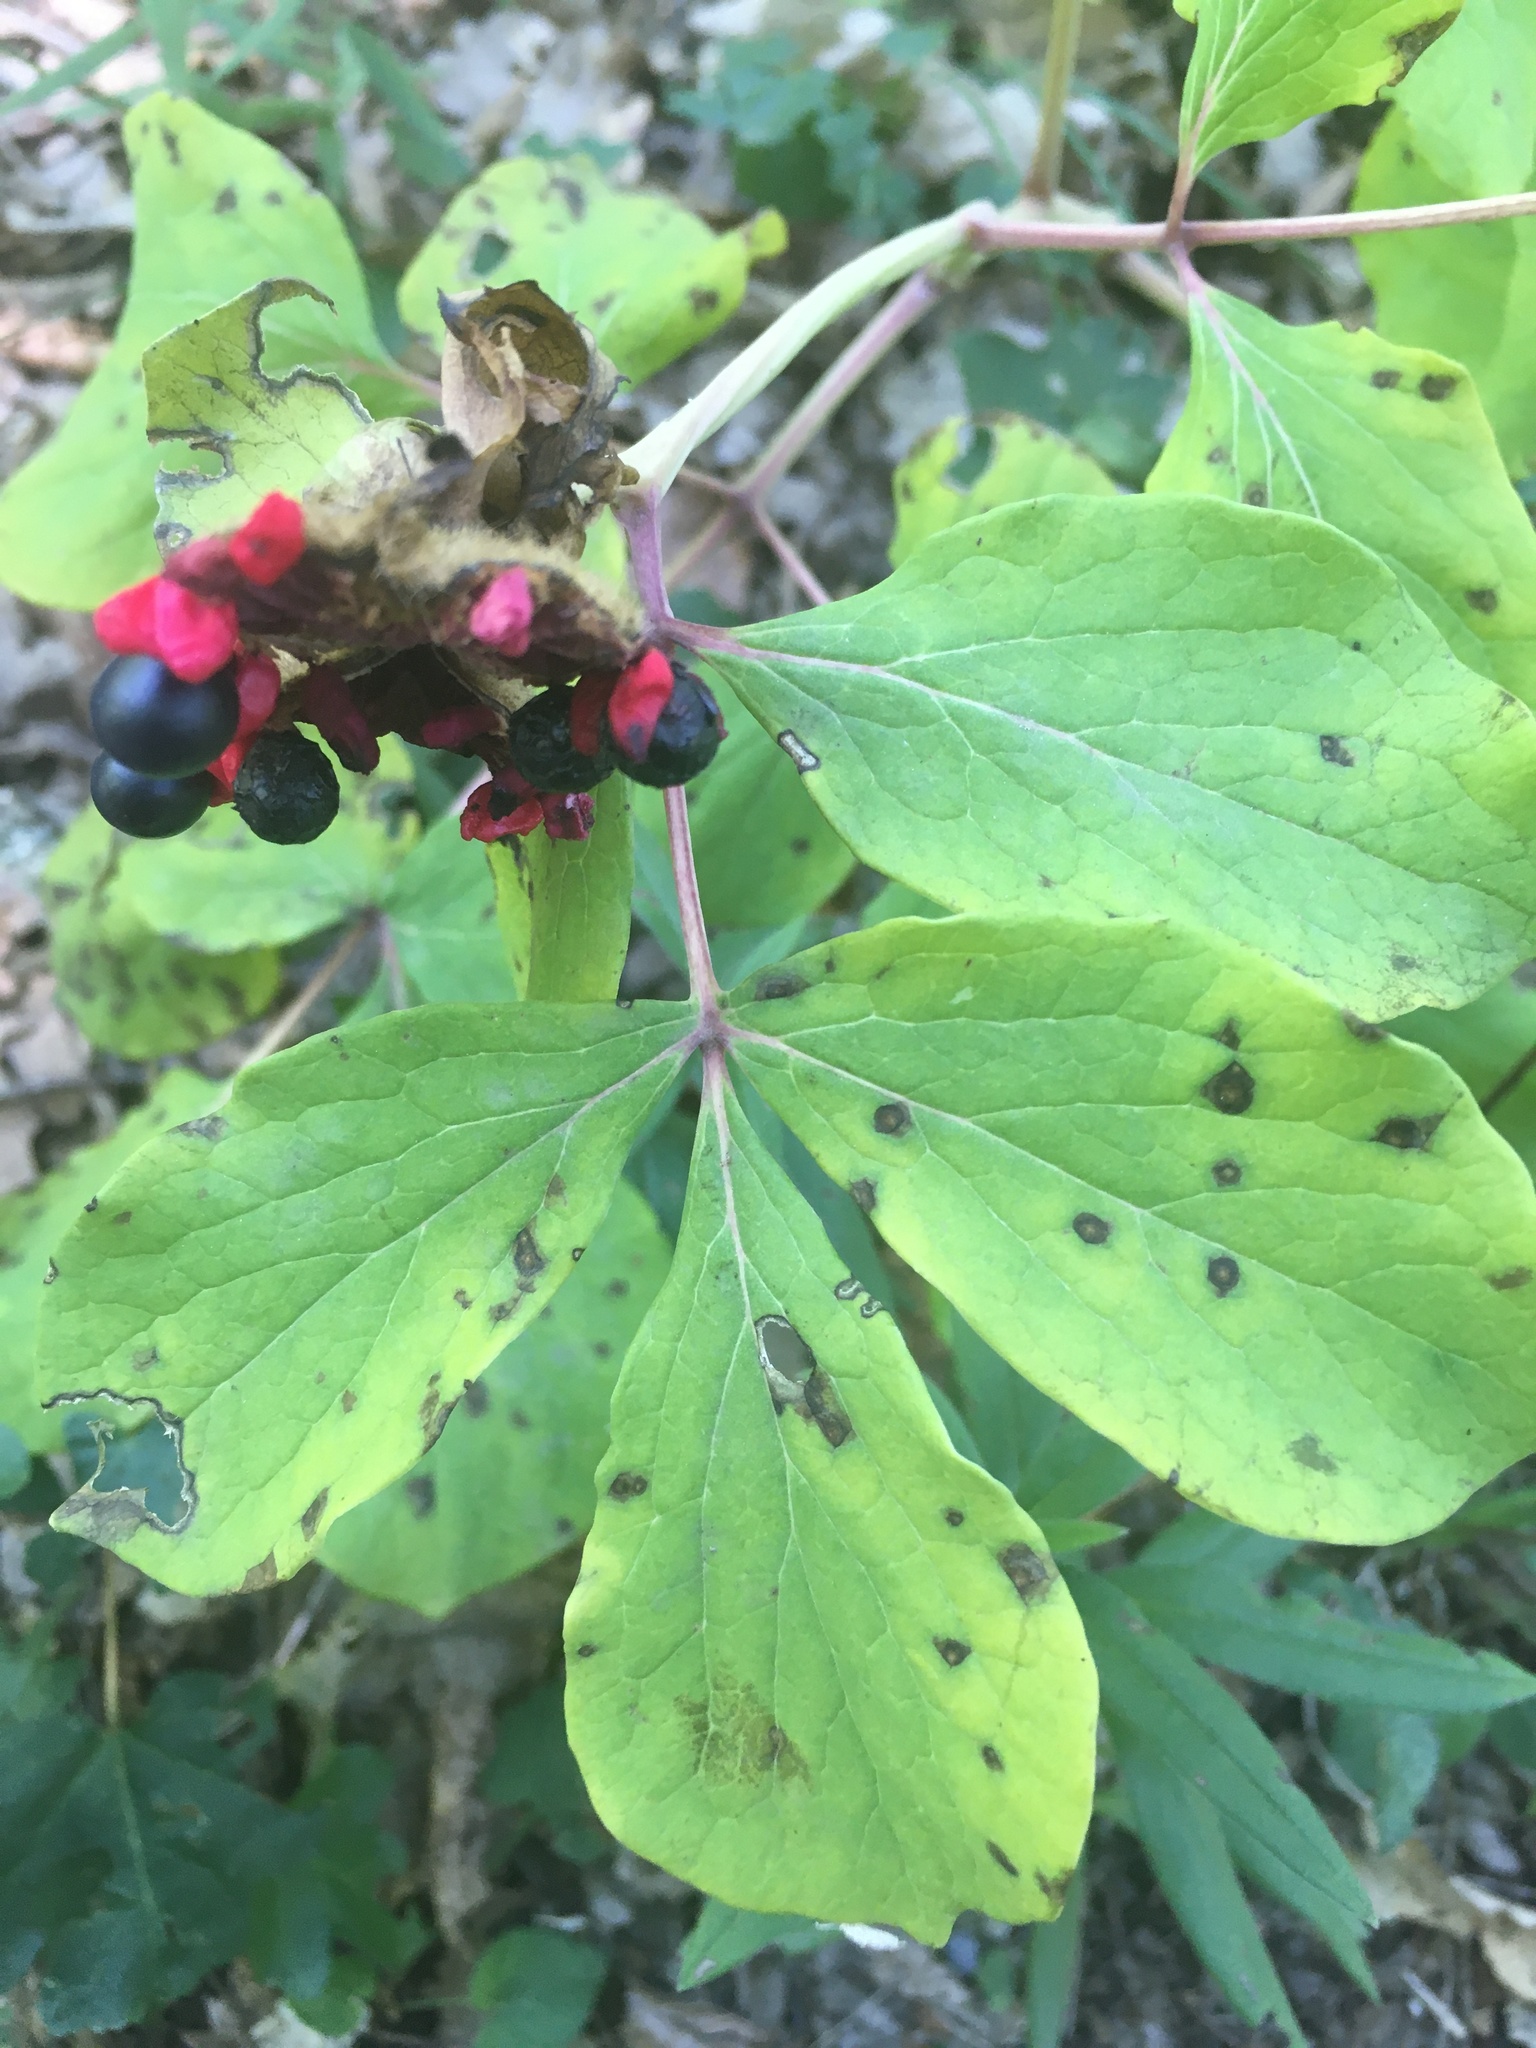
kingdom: Plantae
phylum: Tracheophyta
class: Magnoliopsida
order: Saxifragales
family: Paeoniaceae
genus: Paeonia
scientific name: Paeonia daurica
